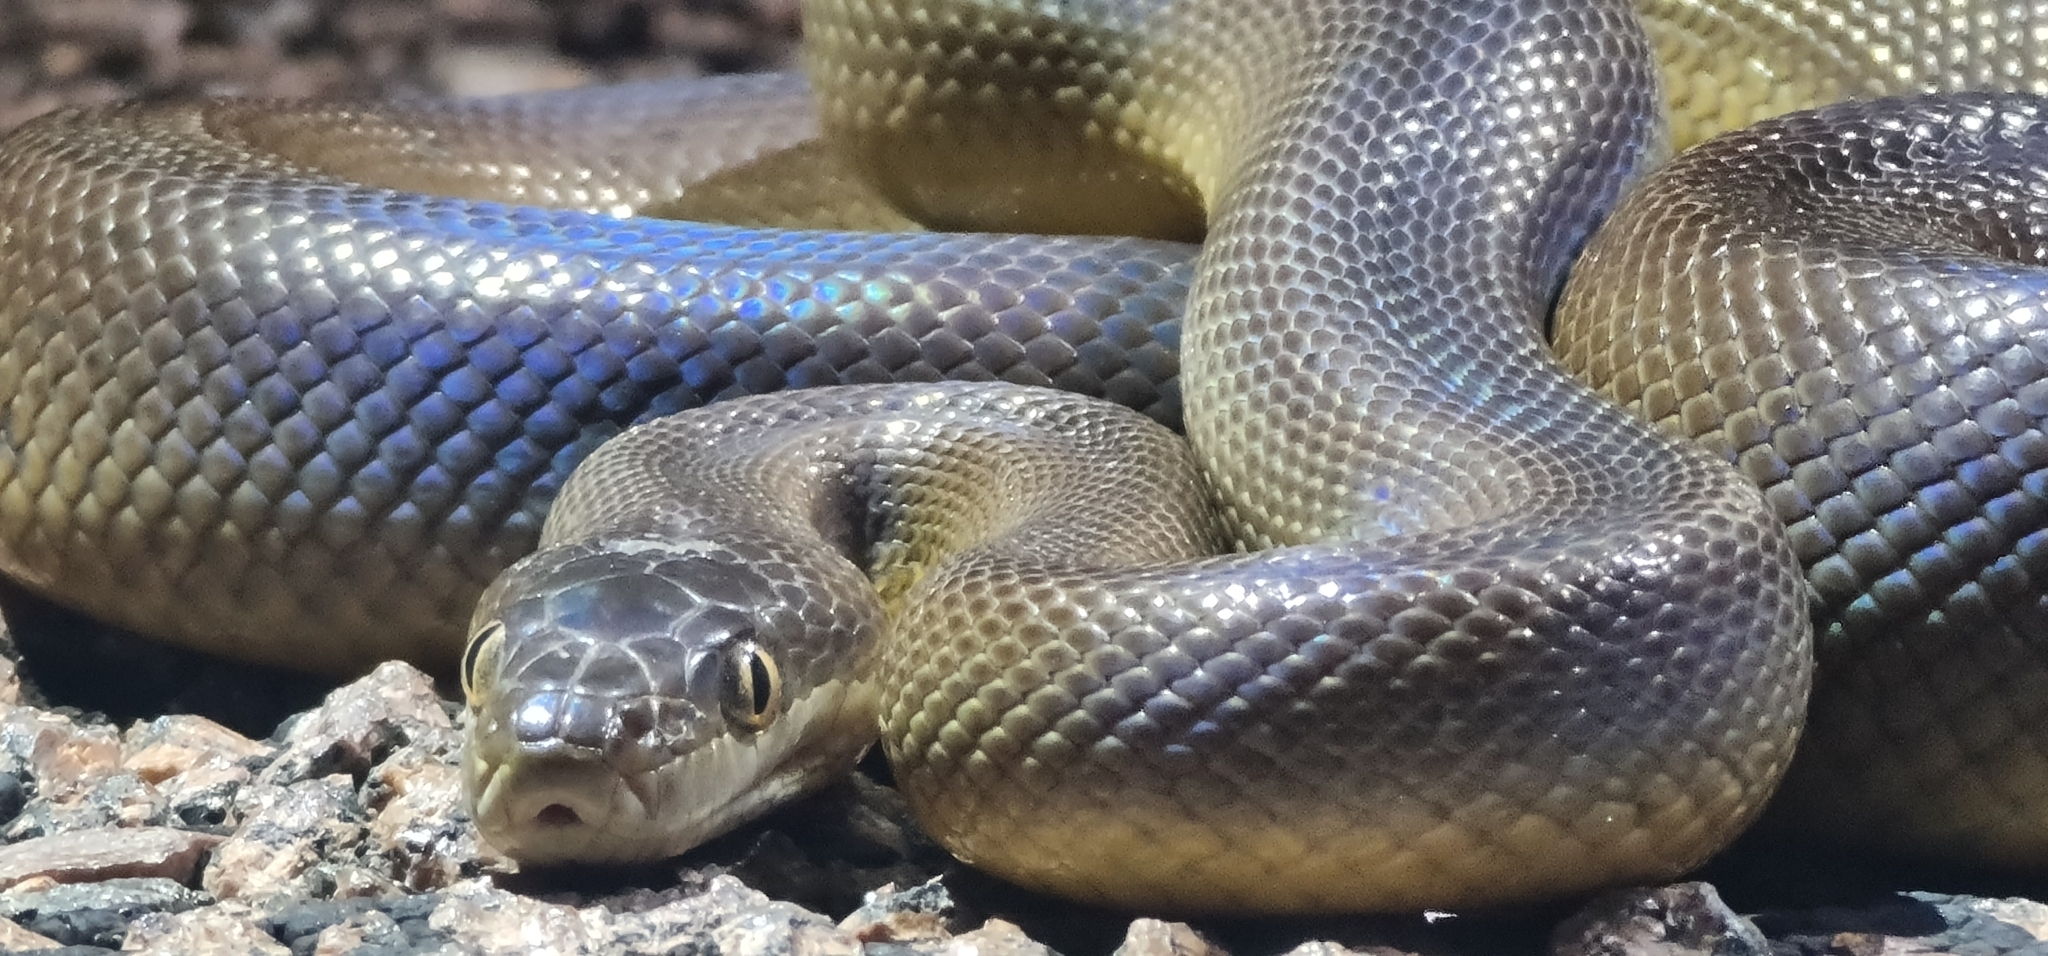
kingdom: Animalia
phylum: Chordata
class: Squamata
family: Pythonidae
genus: Liasis
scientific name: Liasis fuscus
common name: Brown water python
